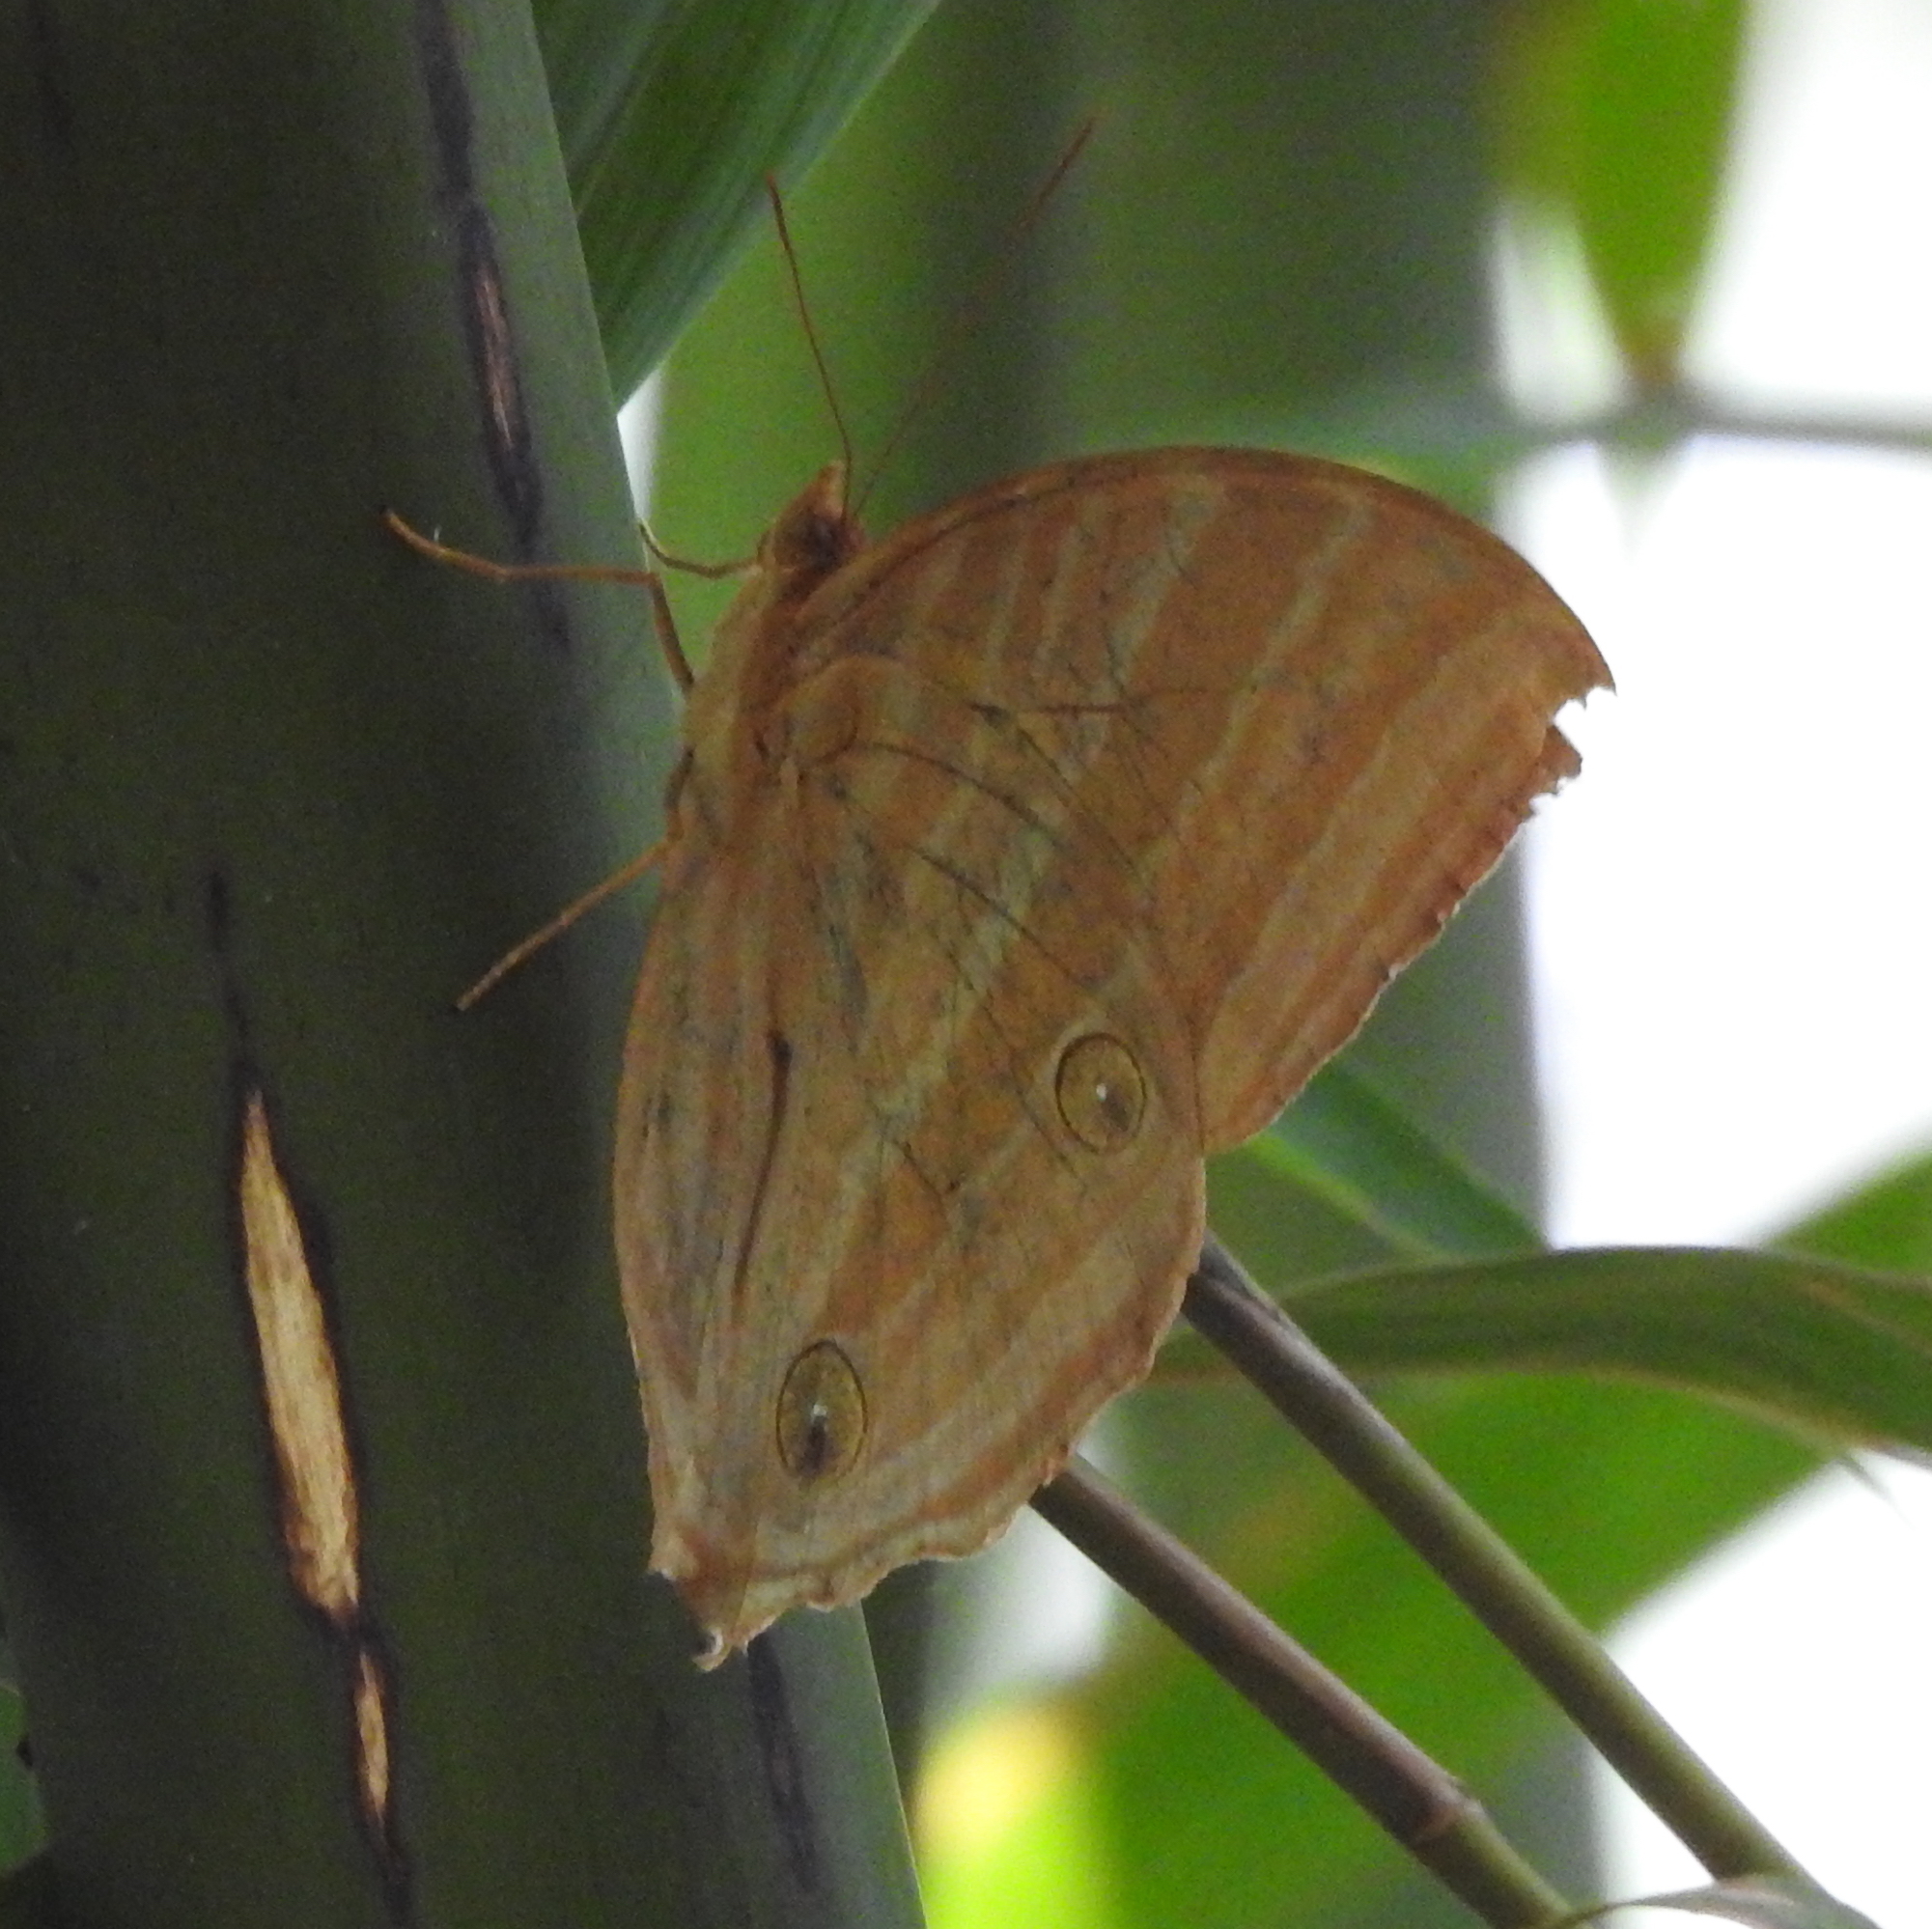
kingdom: Animalia
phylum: Arthropoda
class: Insecta
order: Lepidoptera
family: Nymphalidae
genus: Amathusia
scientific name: Amathusia phidippus
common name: Palm king
